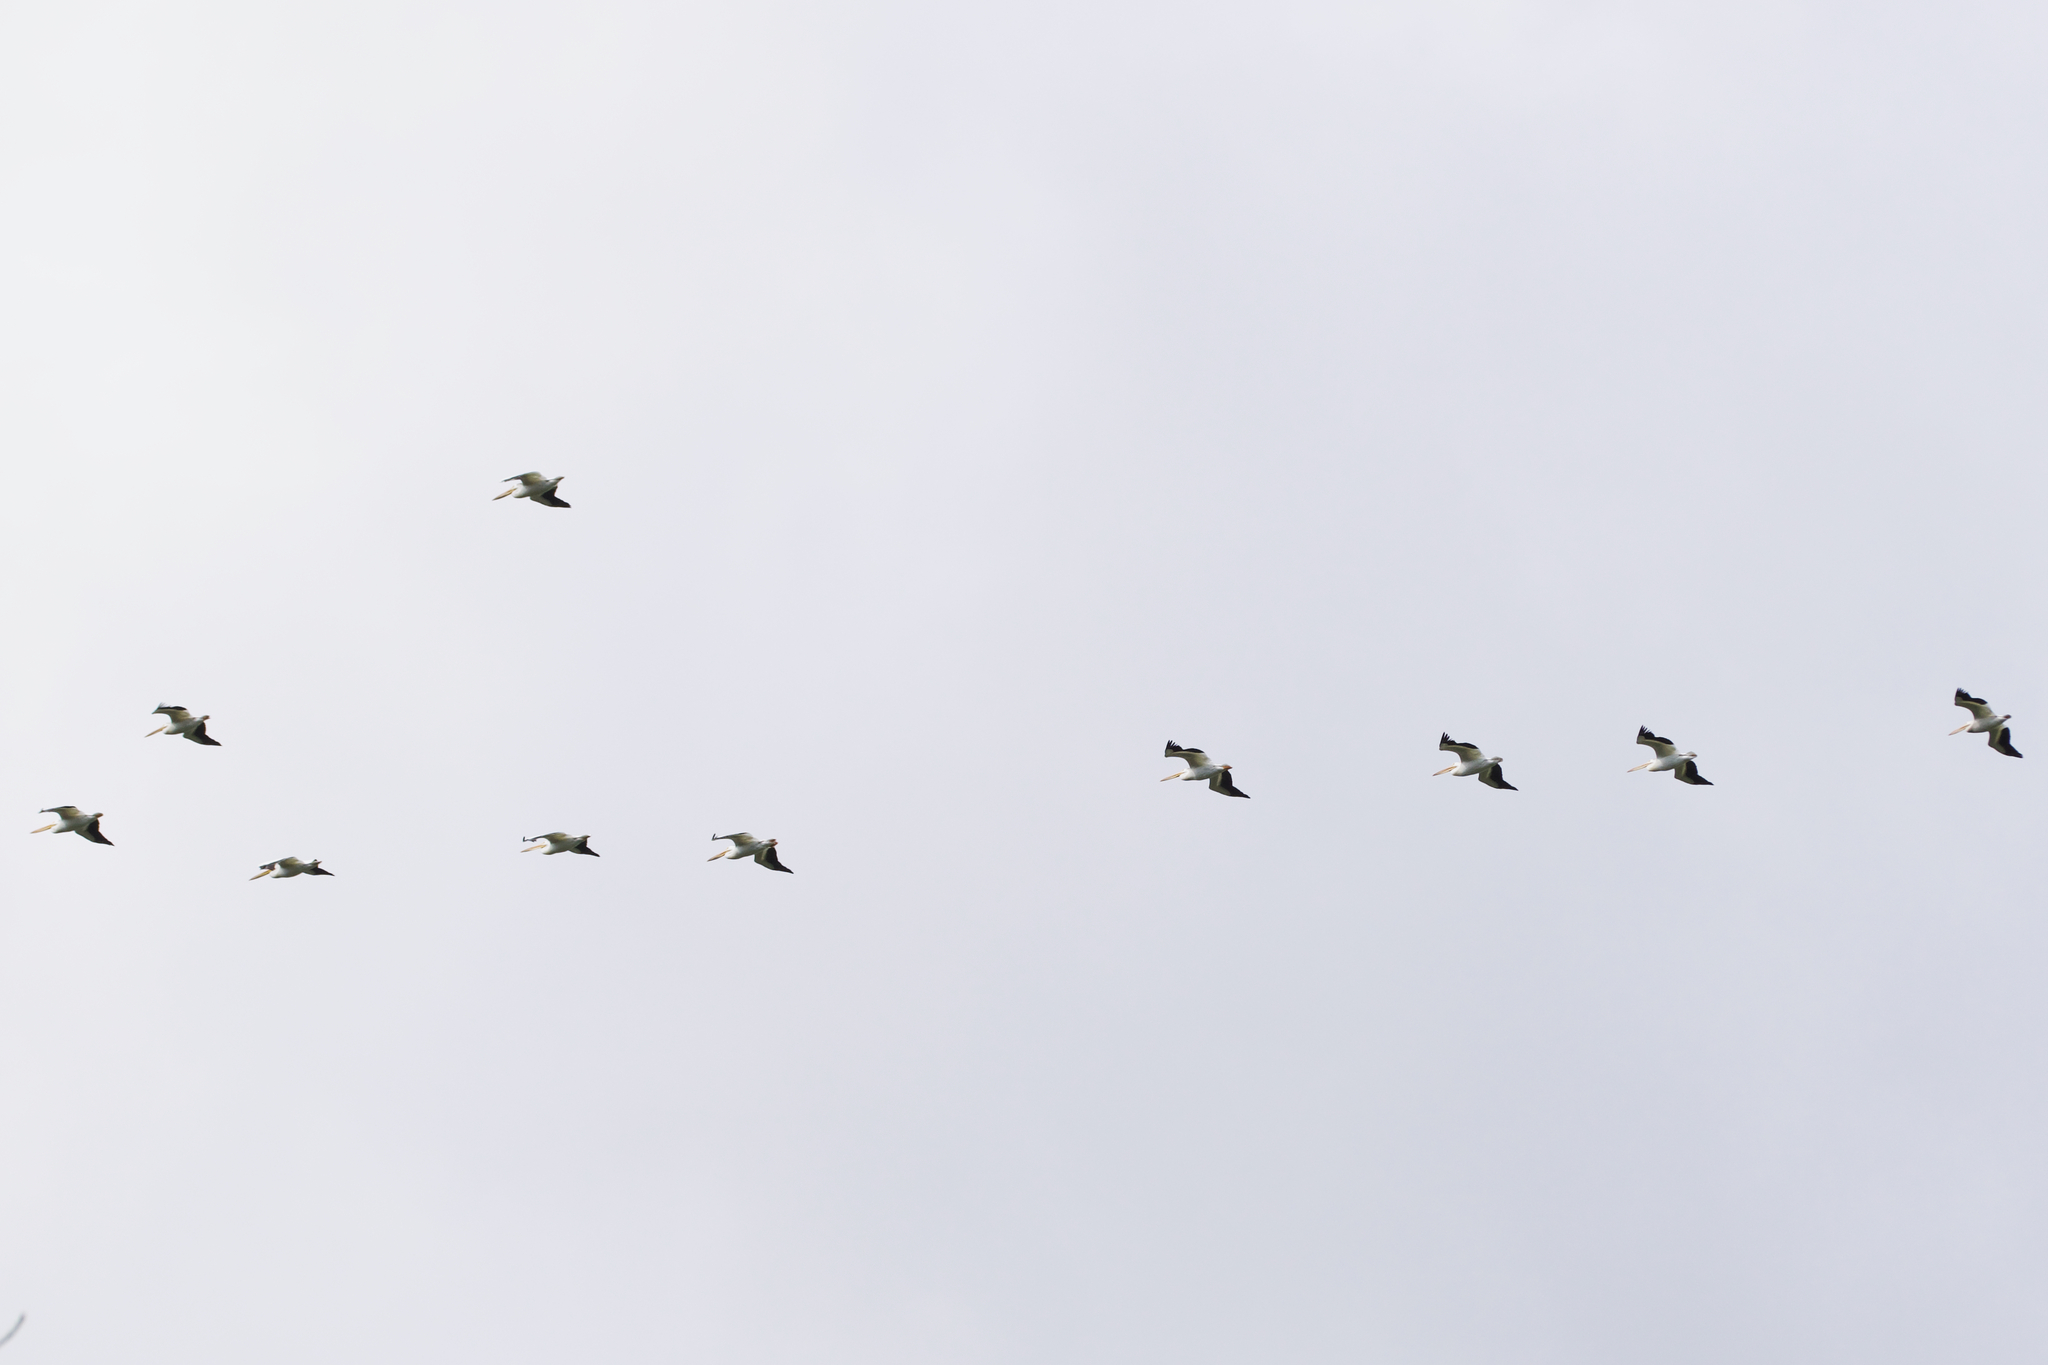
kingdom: Animalia
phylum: Chordata
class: Aves
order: Pelecaniformes
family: Pelecanidae
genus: Pelecanus
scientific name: Pelecanus erythrorhynchos
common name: American white pelican
